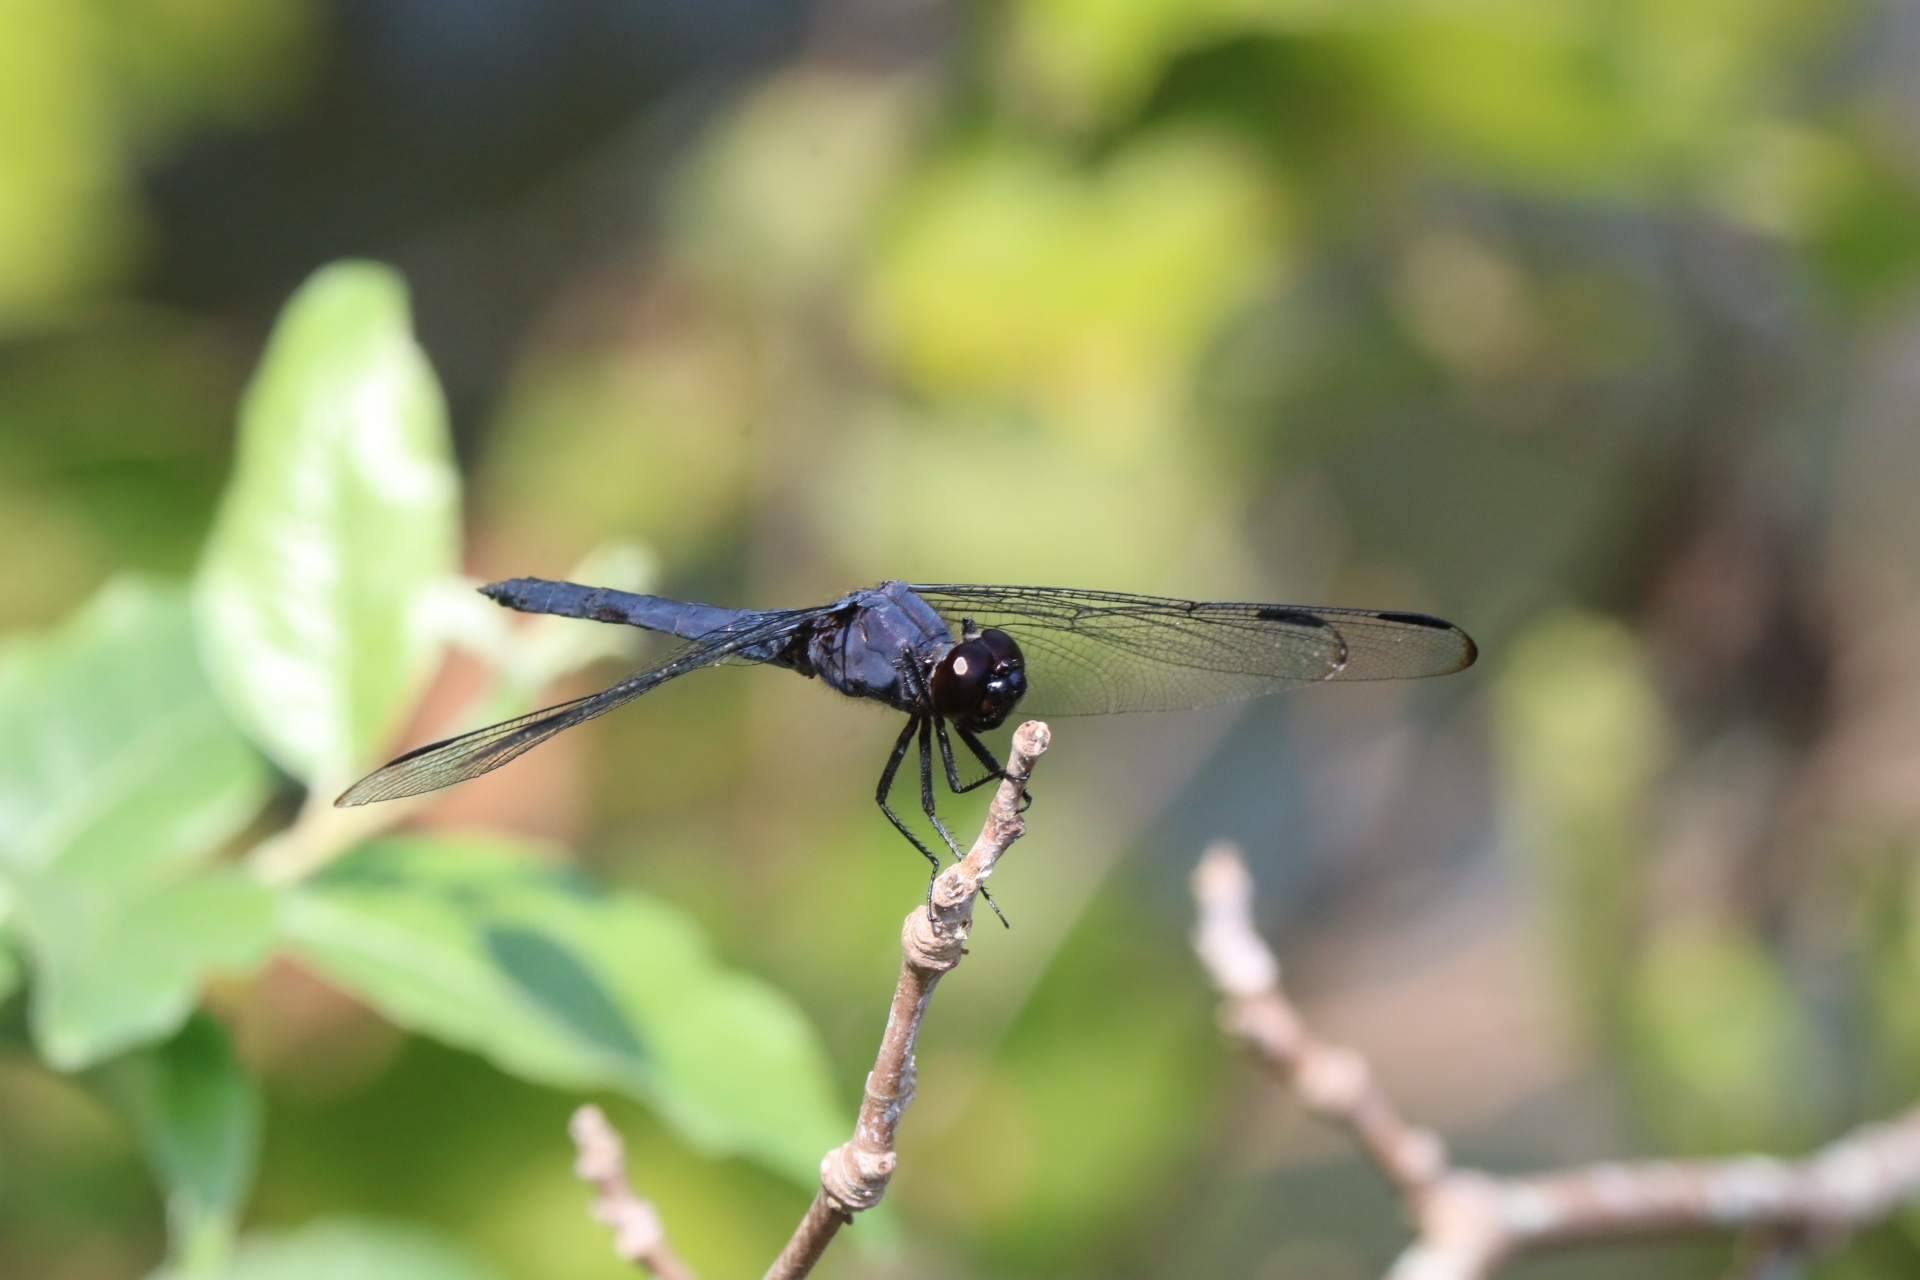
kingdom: Animalia
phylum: Arthropoda
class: Insecta
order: Odonata
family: Libellulidae
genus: Libellula
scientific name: Libellula incesta
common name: Slaty skimmer
